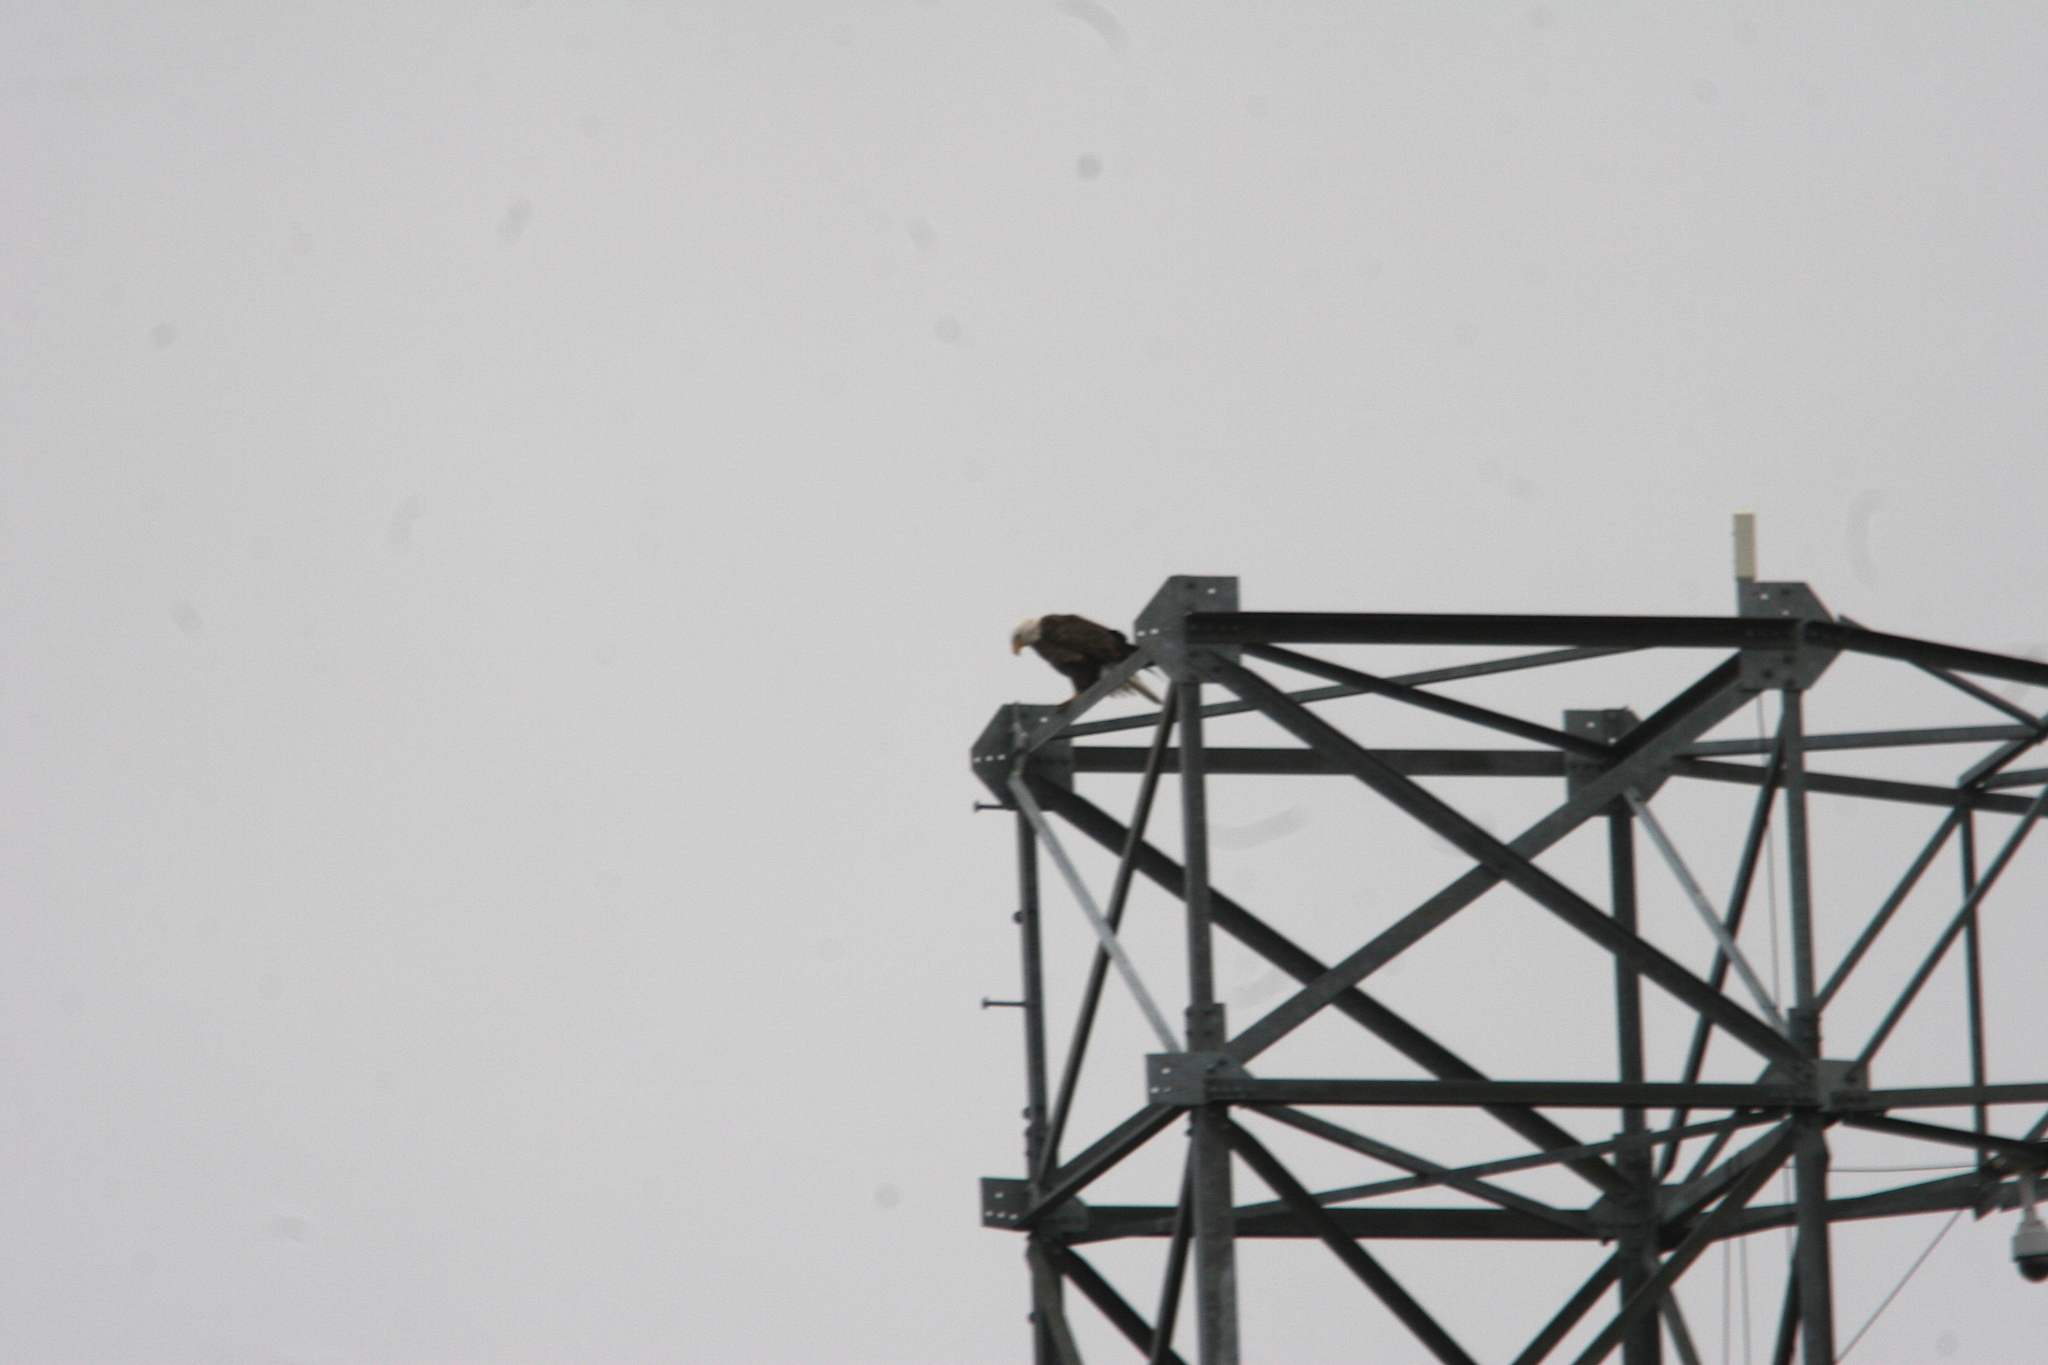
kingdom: Animalia
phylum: Chordata
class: Aves
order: Accipitriformes
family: Accipitridae
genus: Haliaeetus
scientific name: Haliaeetus leucocephalus
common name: Bald eagle
